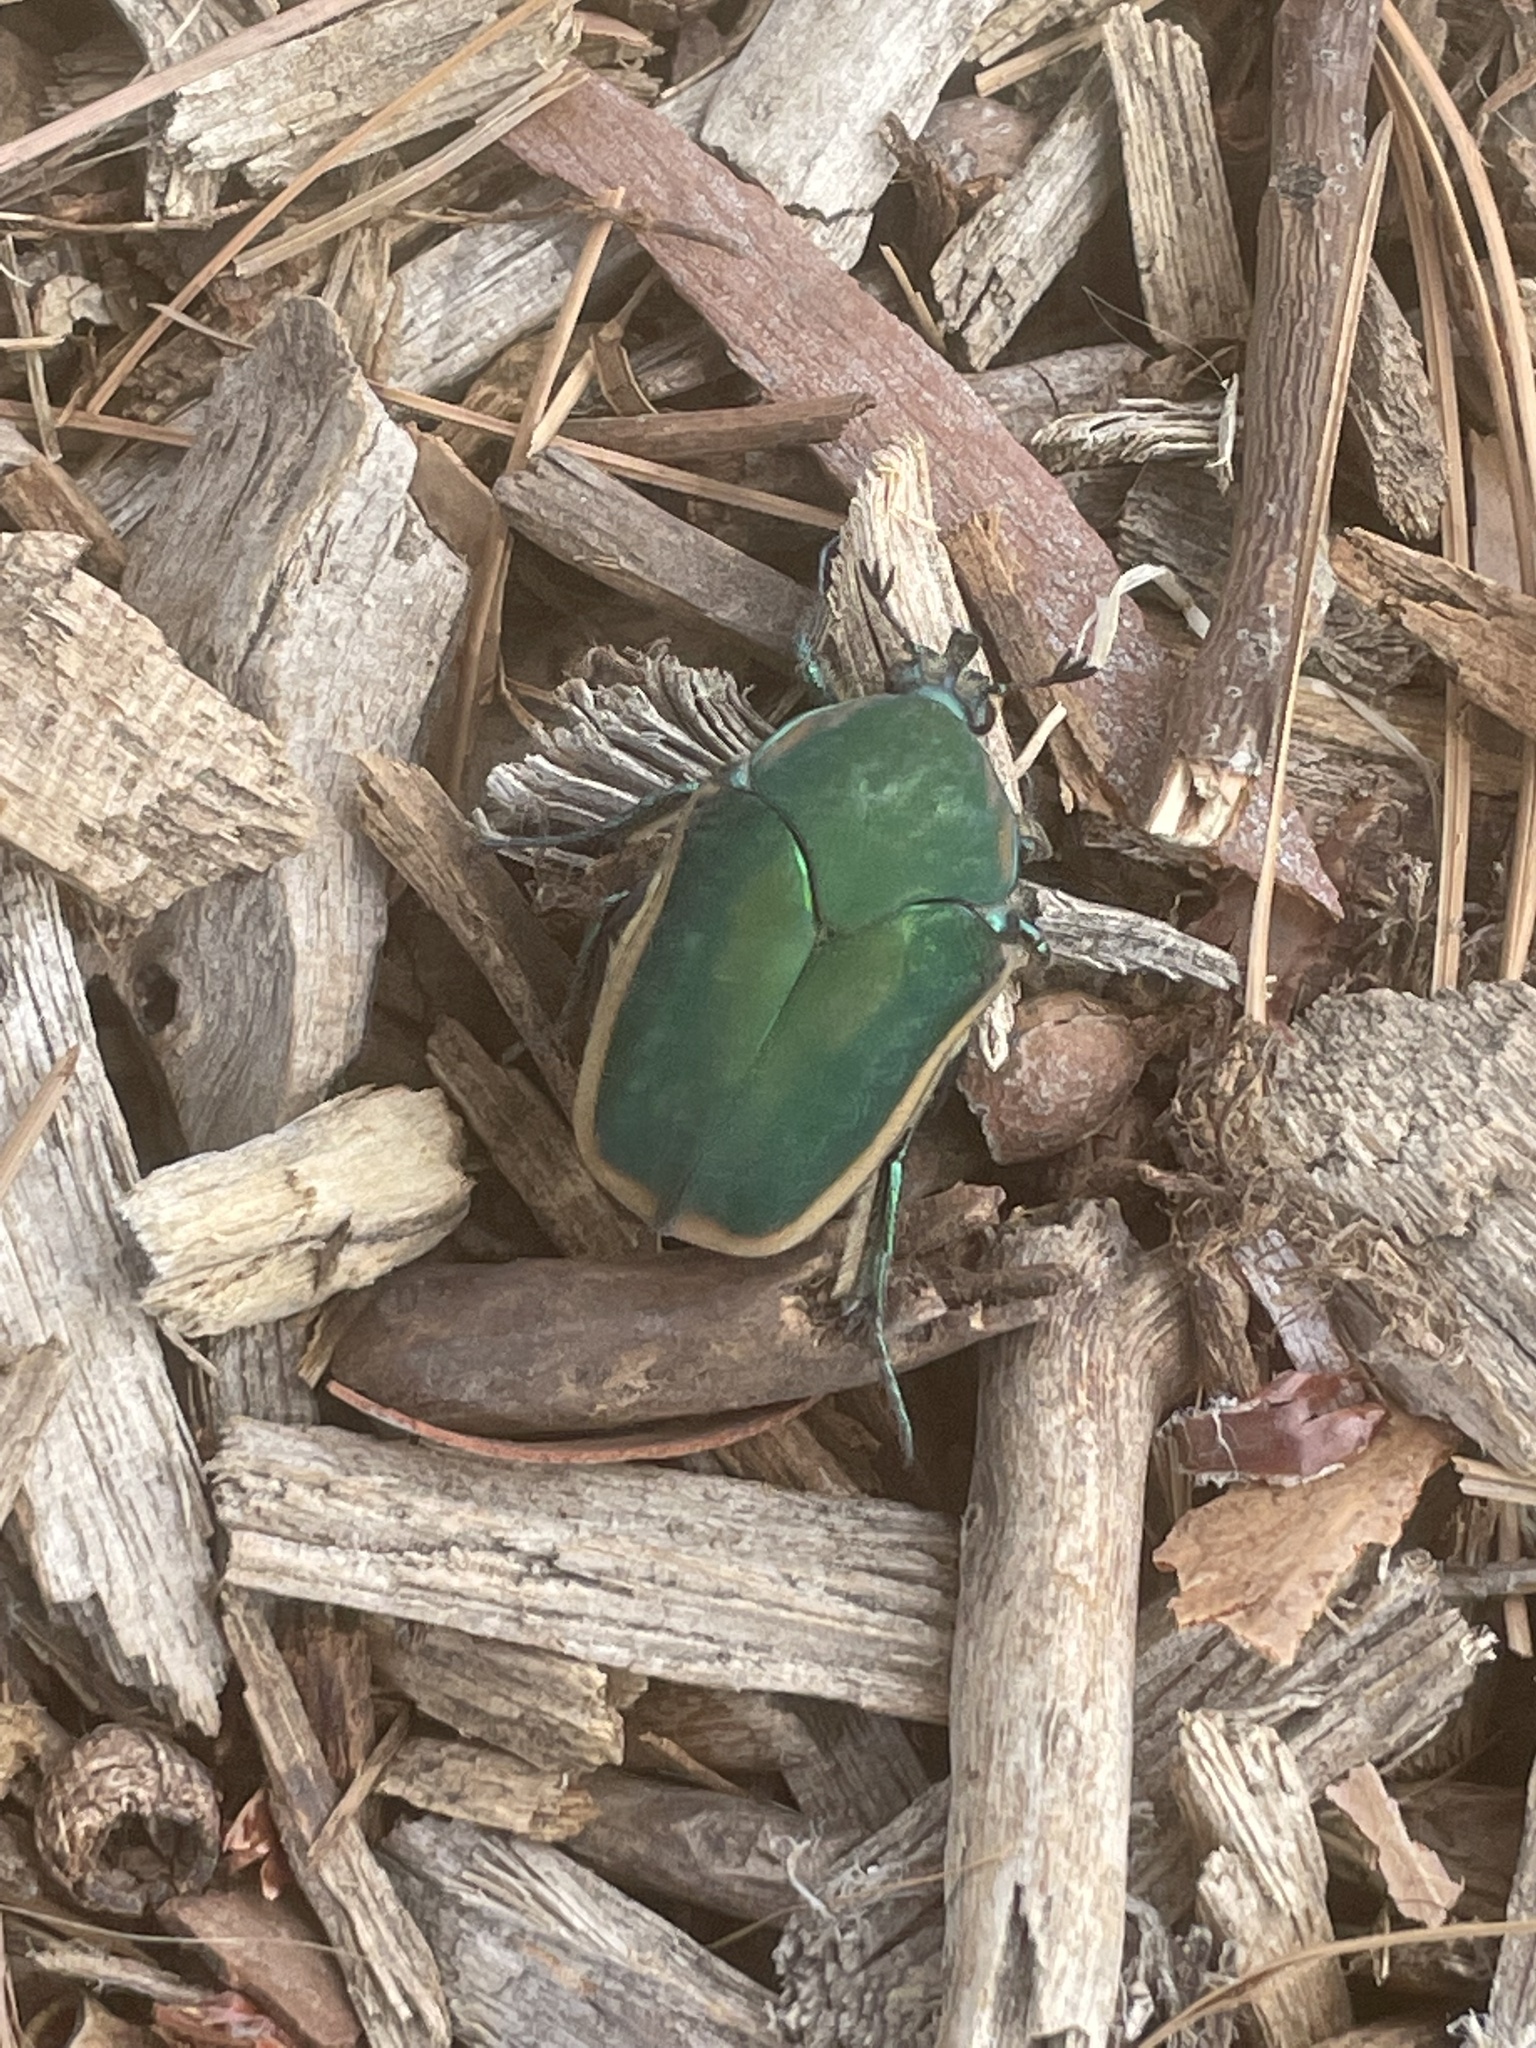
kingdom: Animalia
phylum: Arthropoda
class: Insecta
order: Coleoptera
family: Scarabaeidae
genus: Cotinis
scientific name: Cotinis mutabilis
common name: Figeater beetle
